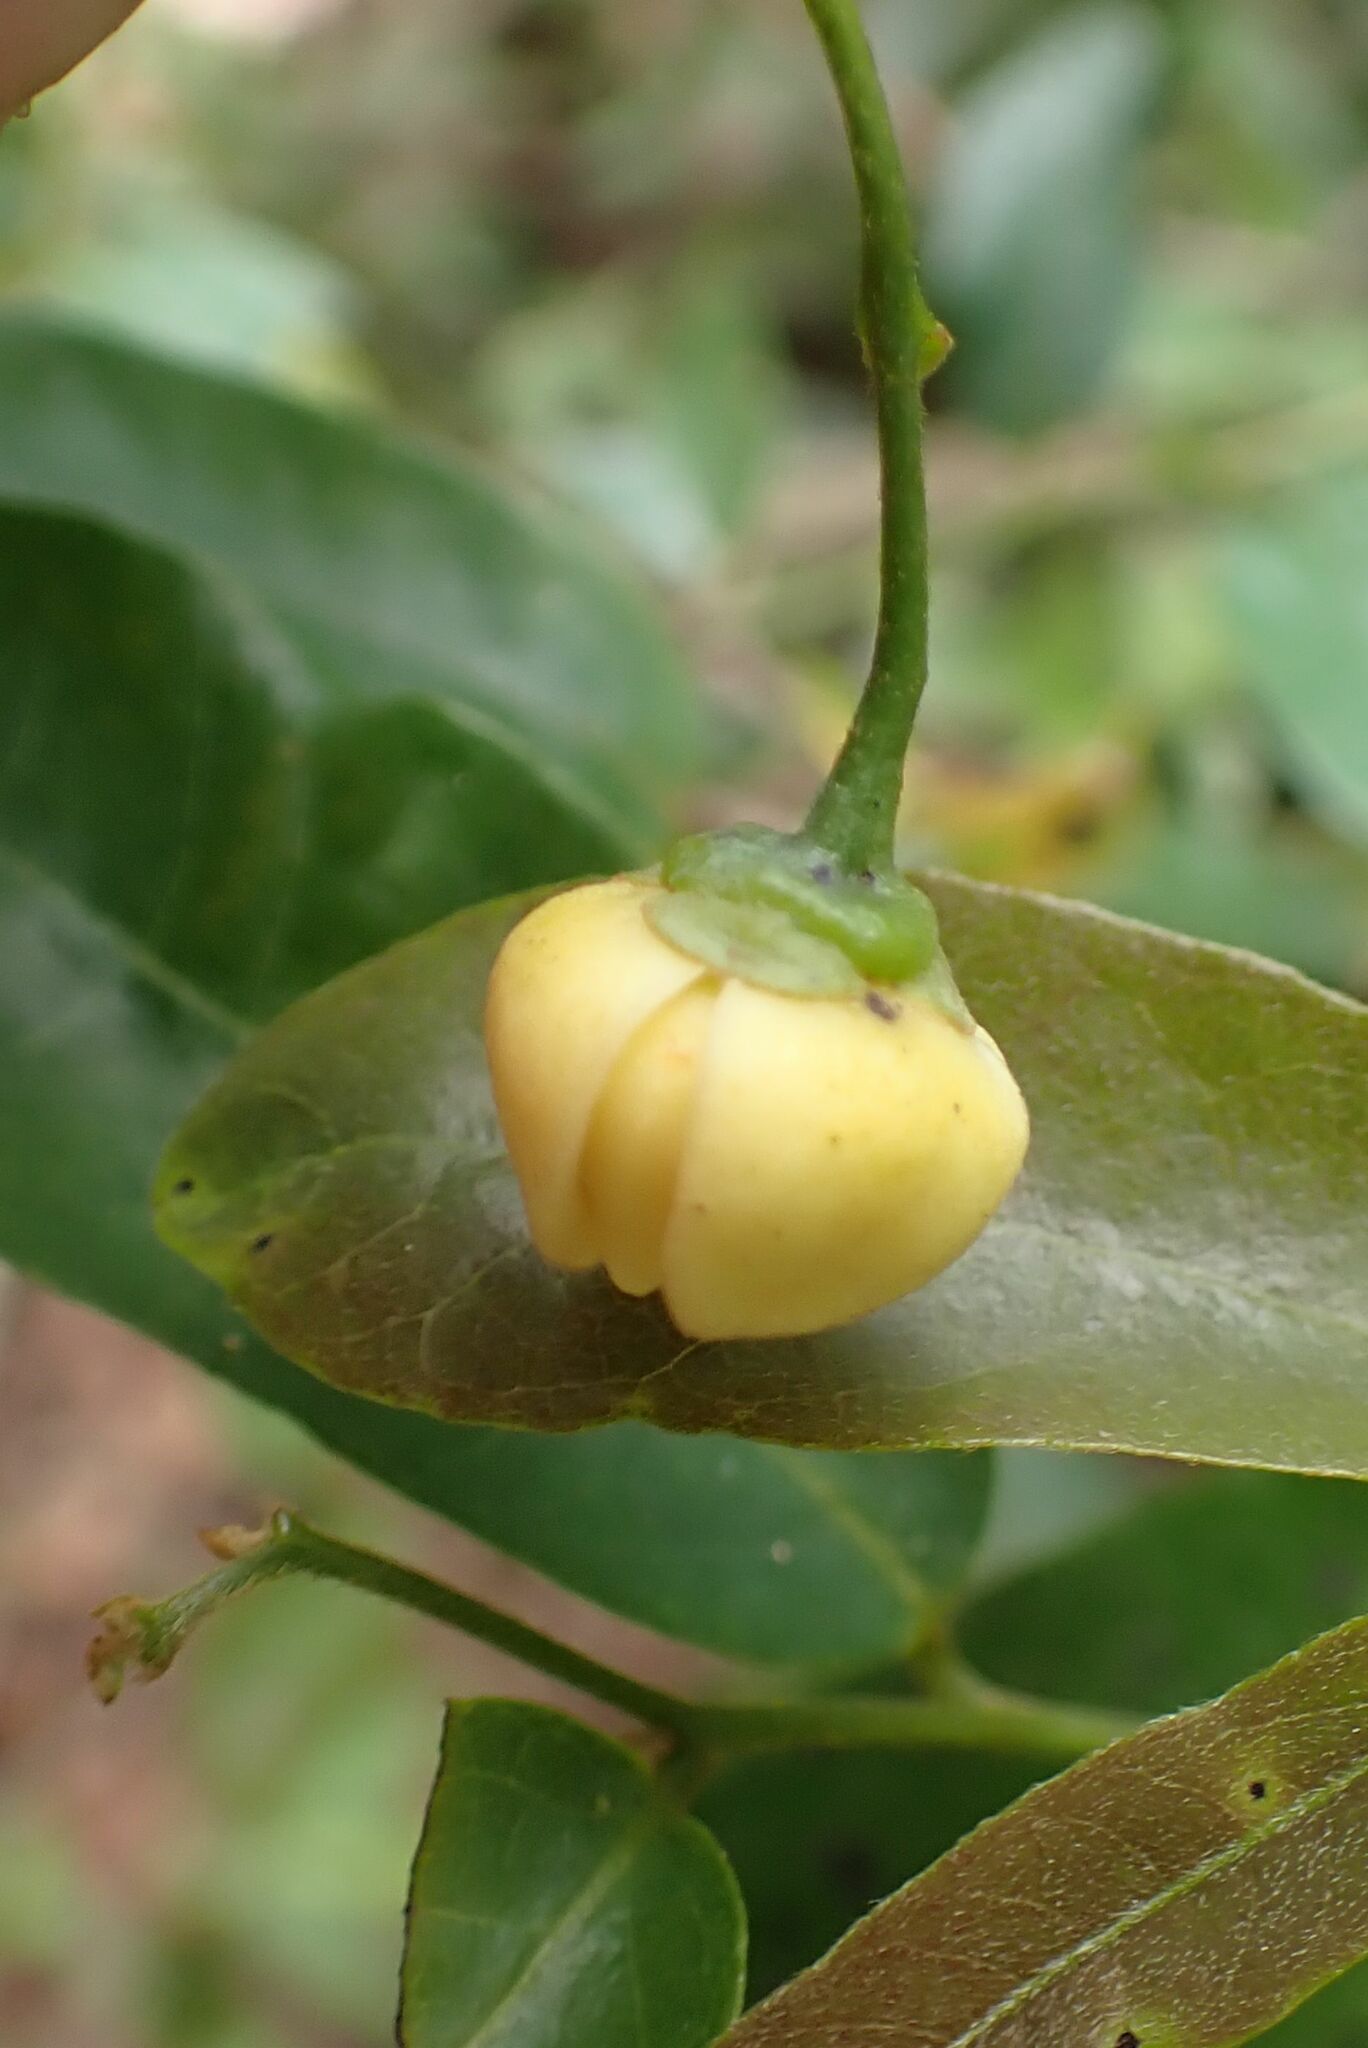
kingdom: Plantae
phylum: Tracheophyta
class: Magnoliopsida
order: Magnoliales
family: Annonaceae
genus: Monanthotaxis
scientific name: Monanthotaxis caffra
